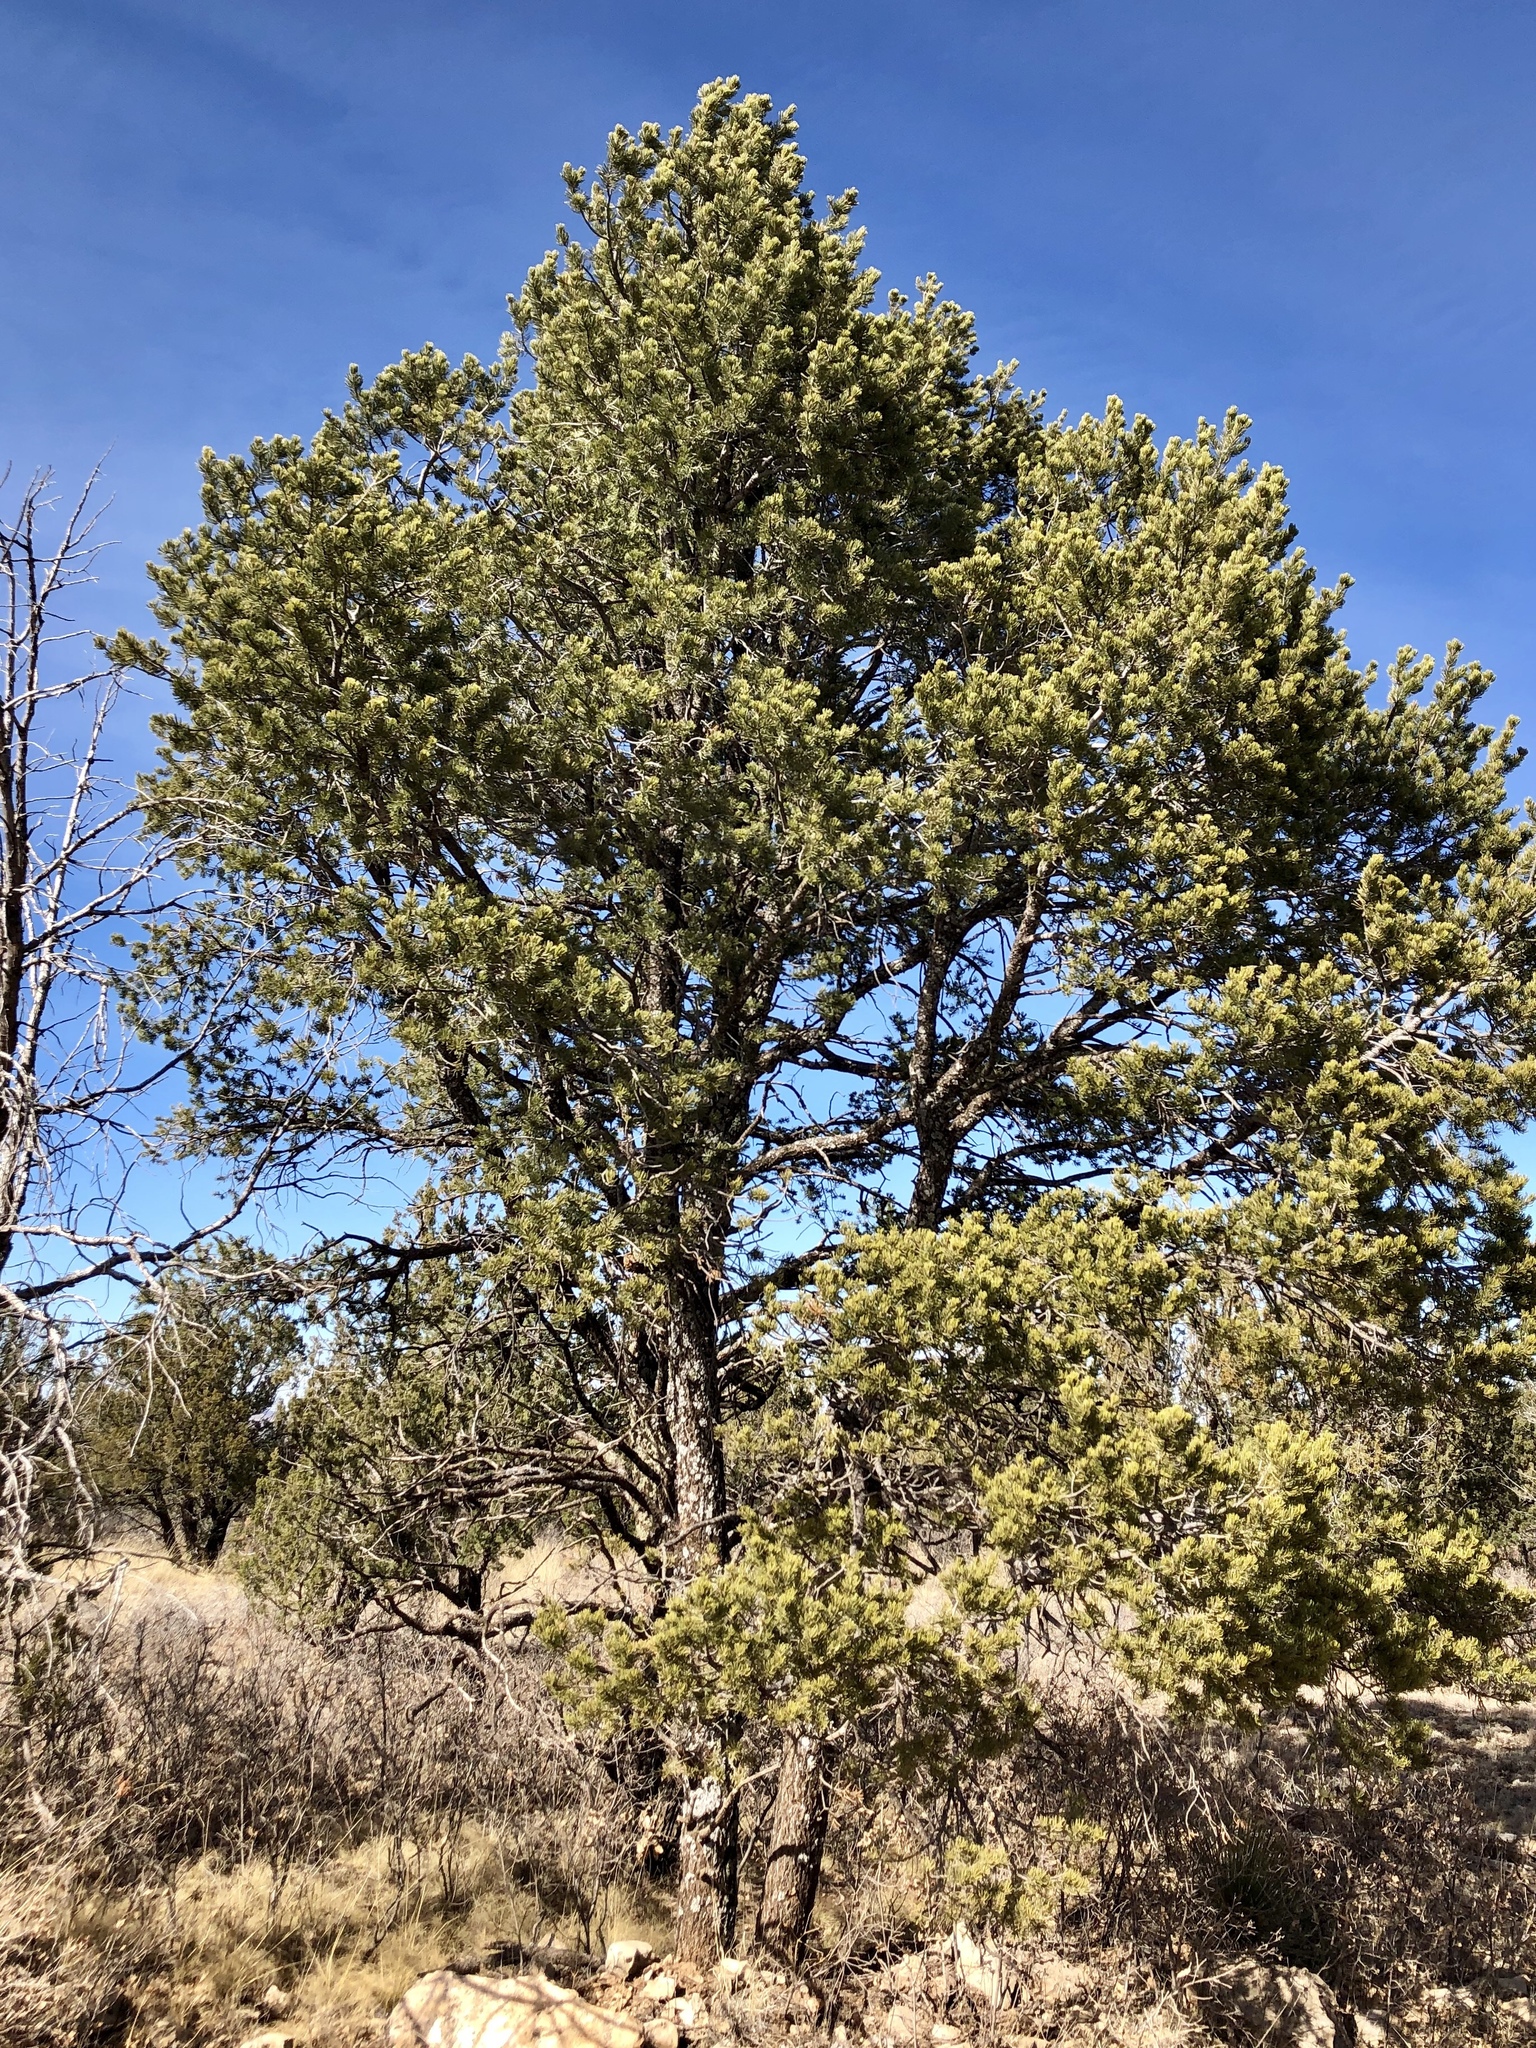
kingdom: Plantae
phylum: Tracheophyta
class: Pinopsida
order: Pinales
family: Pinaceae
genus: Pinus
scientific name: Pinus edulis
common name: Colorado pinyon
